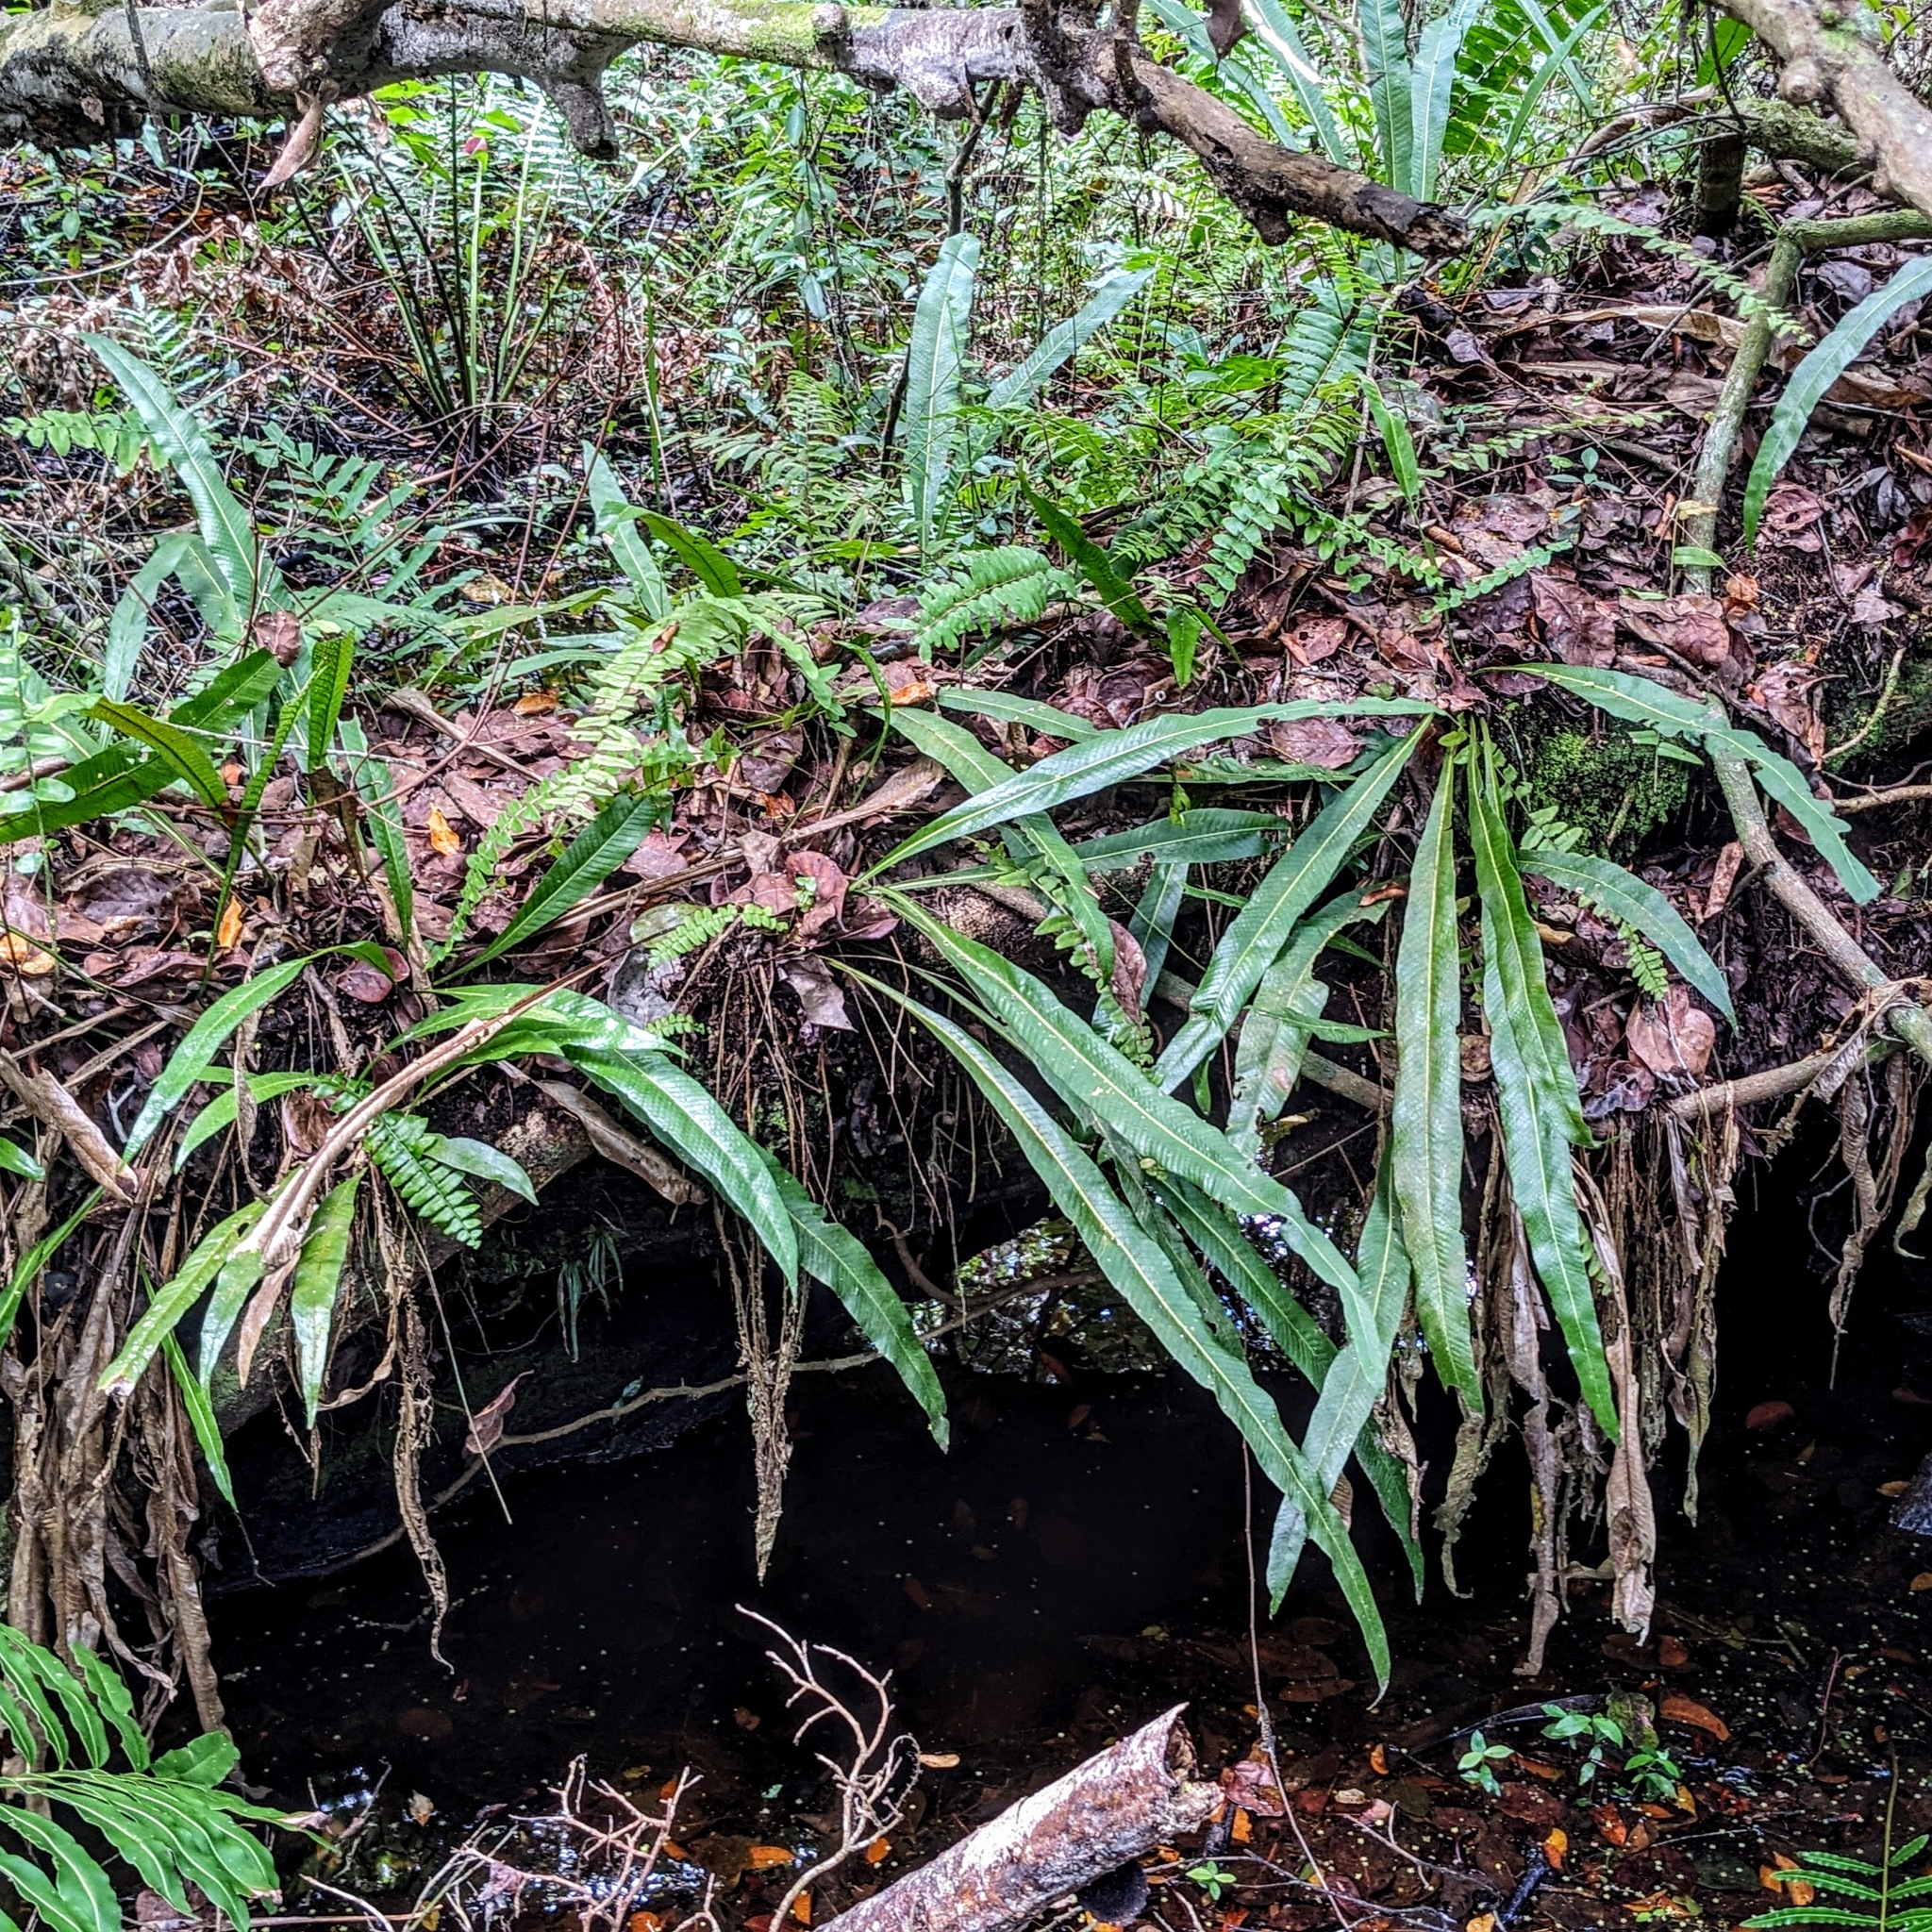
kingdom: Plantae
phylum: Tracheophyta
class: Polypodiopsida
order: Polypodiales
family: Polypodiaceae
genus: Campyloneurum
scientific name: Campyloneurum phyllitidis
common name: Cow-tongue fern
